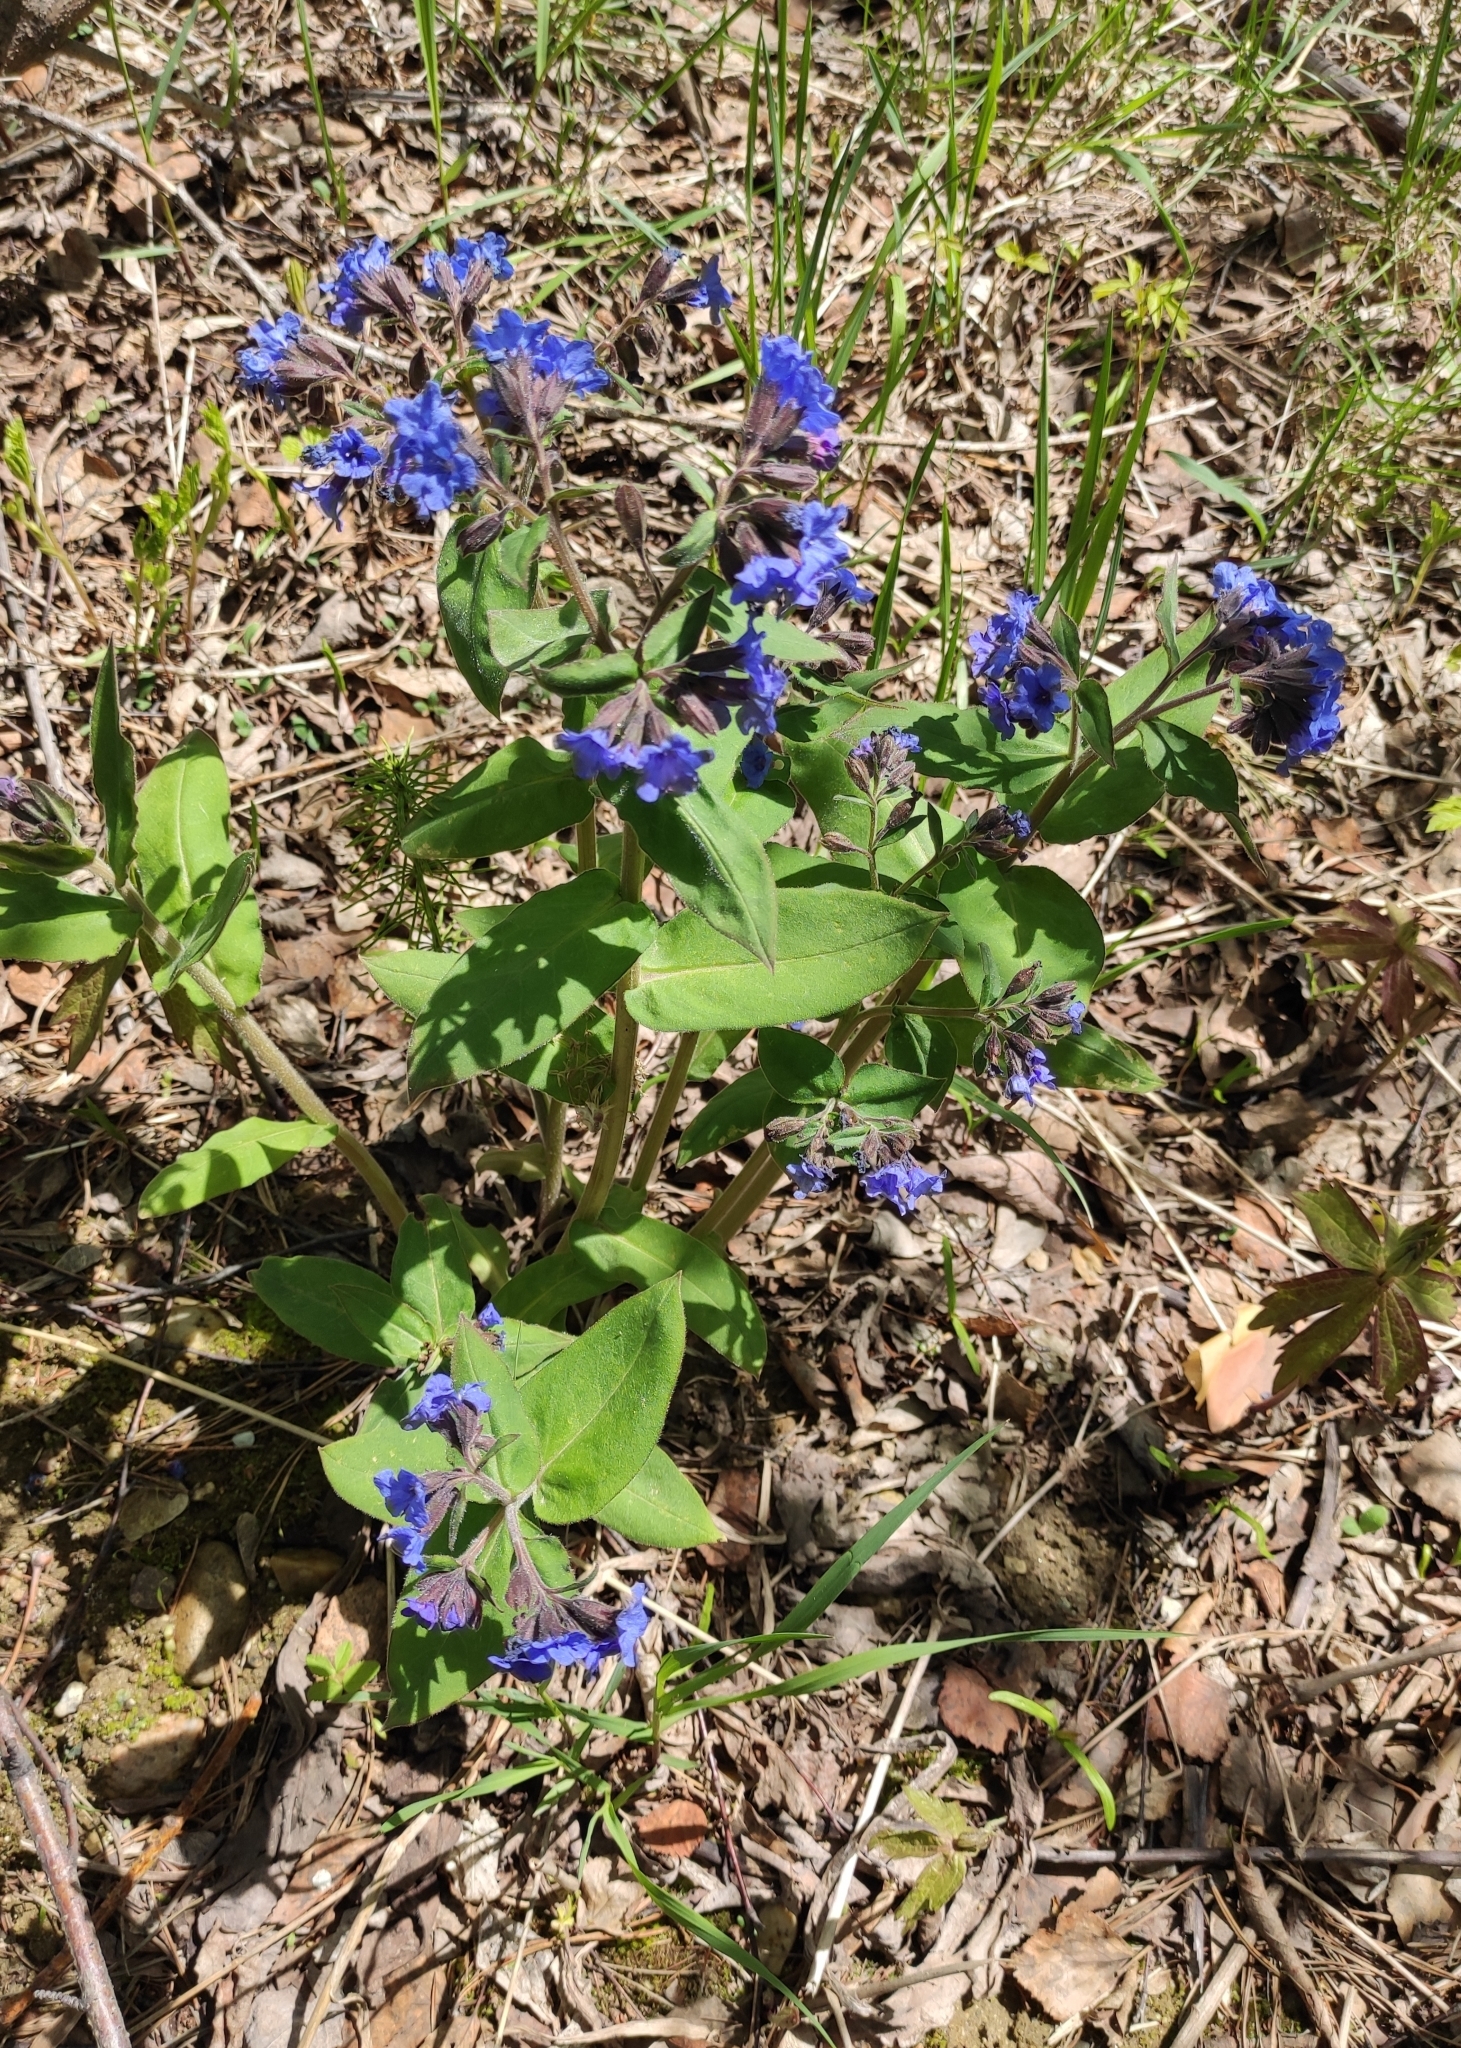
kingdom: Plantae
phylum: Tracheophyta
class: Magnoliopsida
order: Boraginales
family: Boraginaceae
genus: Pulmonaria
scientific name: Pulmonaria mollis
